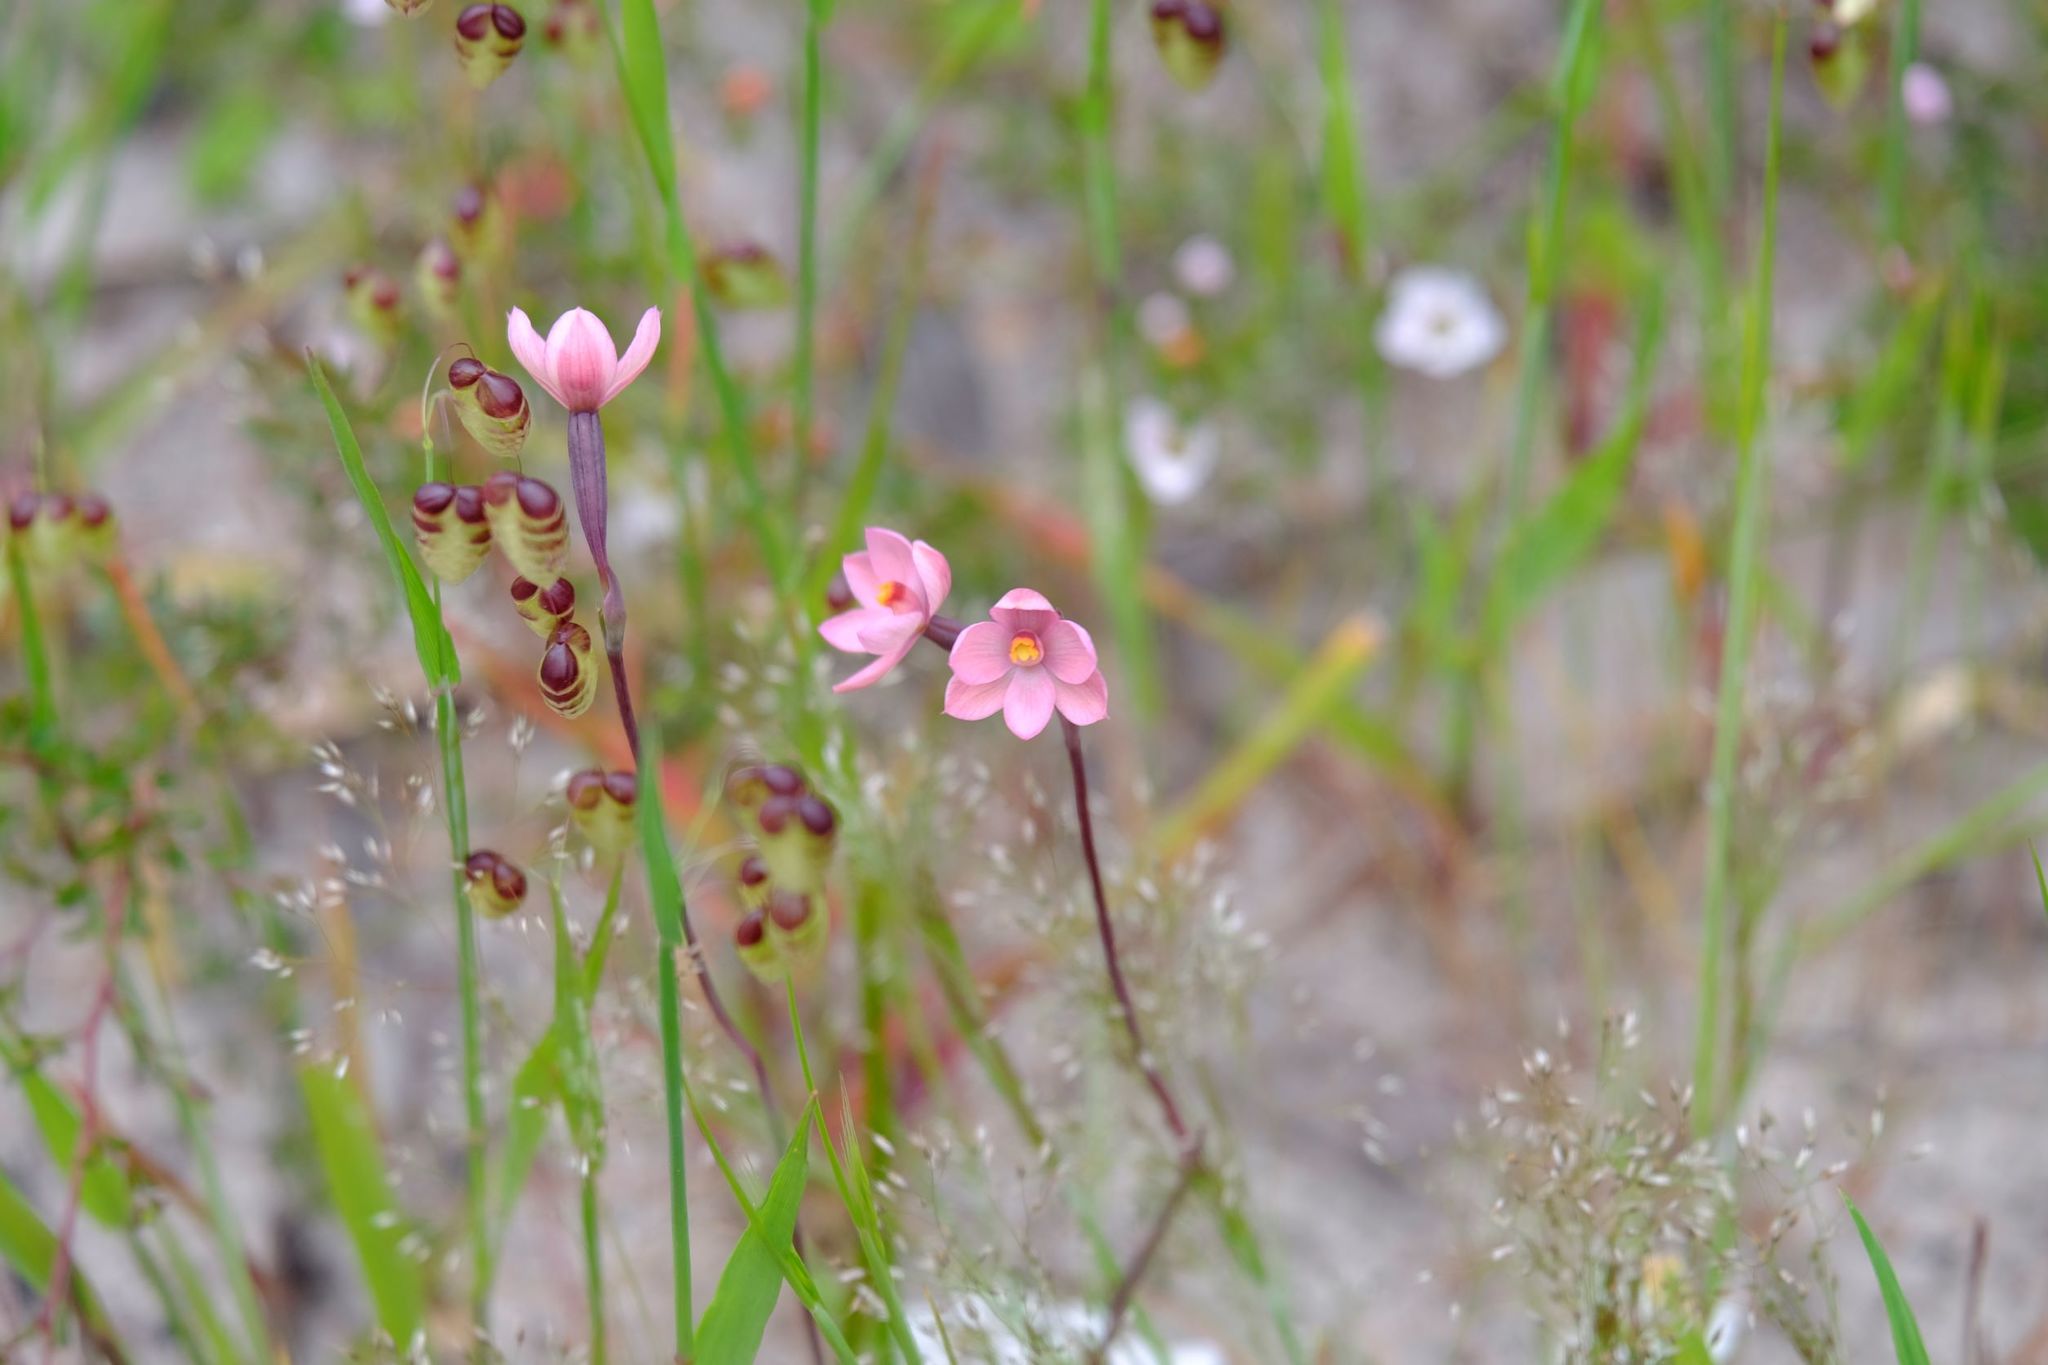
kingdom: Plantae
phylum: Tracheophyta
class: Liliopsida
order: Asparagales
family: Orchidaceae
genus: Thelymitra
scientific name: Thelymitra rubra
